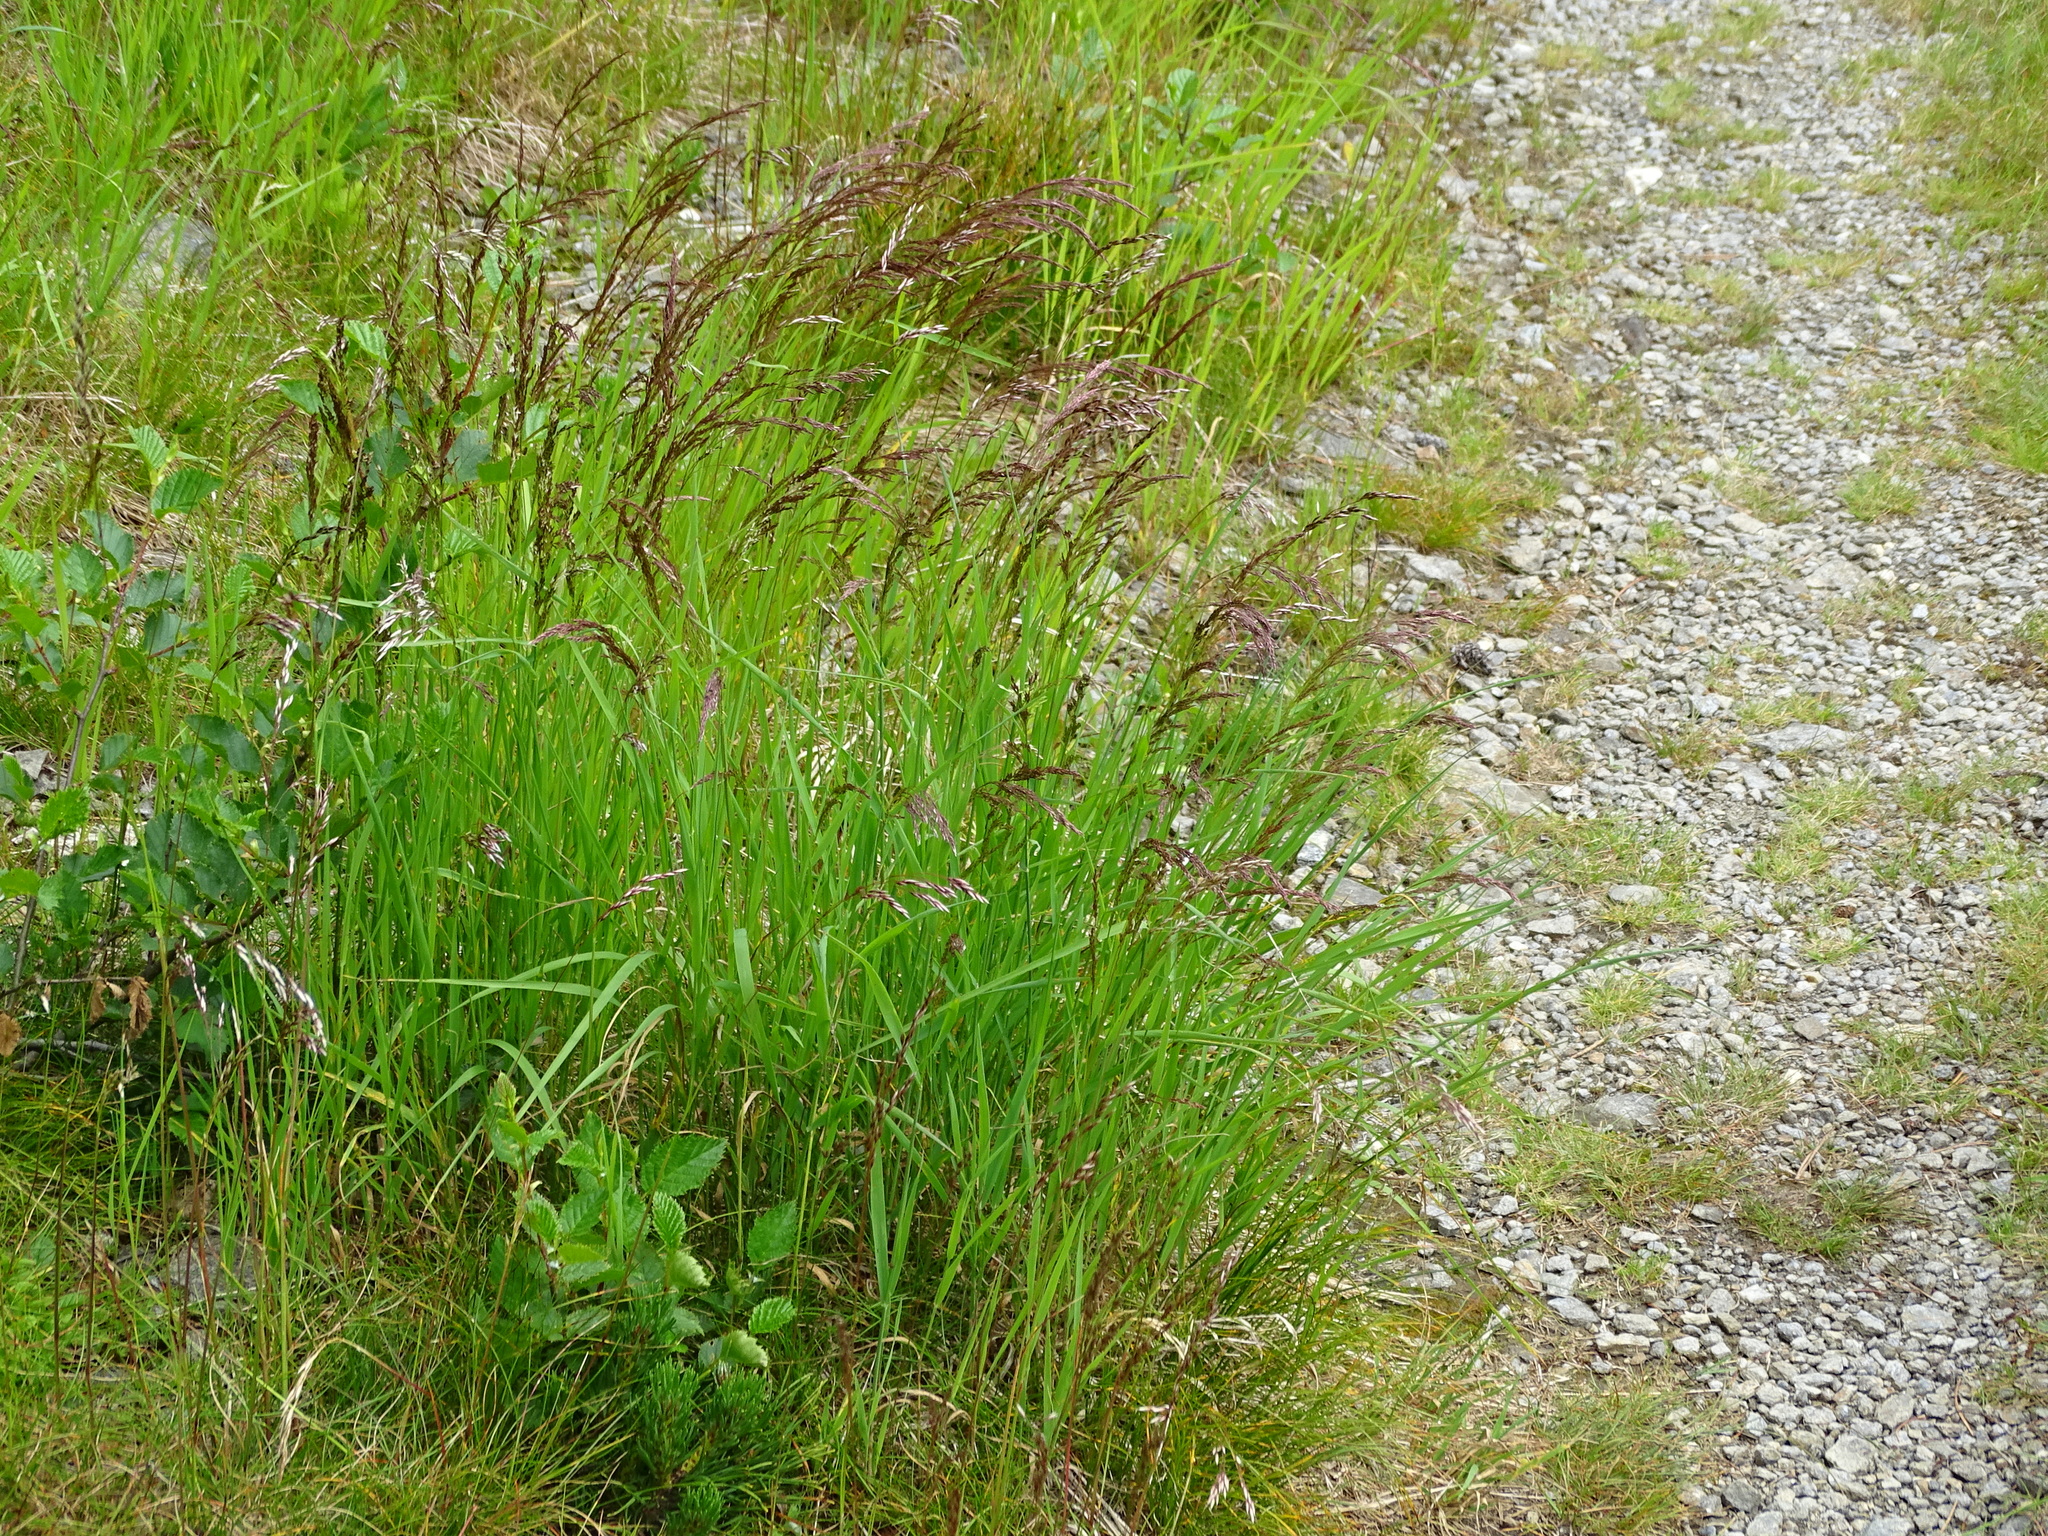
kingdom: Plantae
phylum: Tracheophyta
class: Liliopsida
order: Poales
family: Poaceae
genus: Agrostis
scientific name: Agrostis schraderiana
